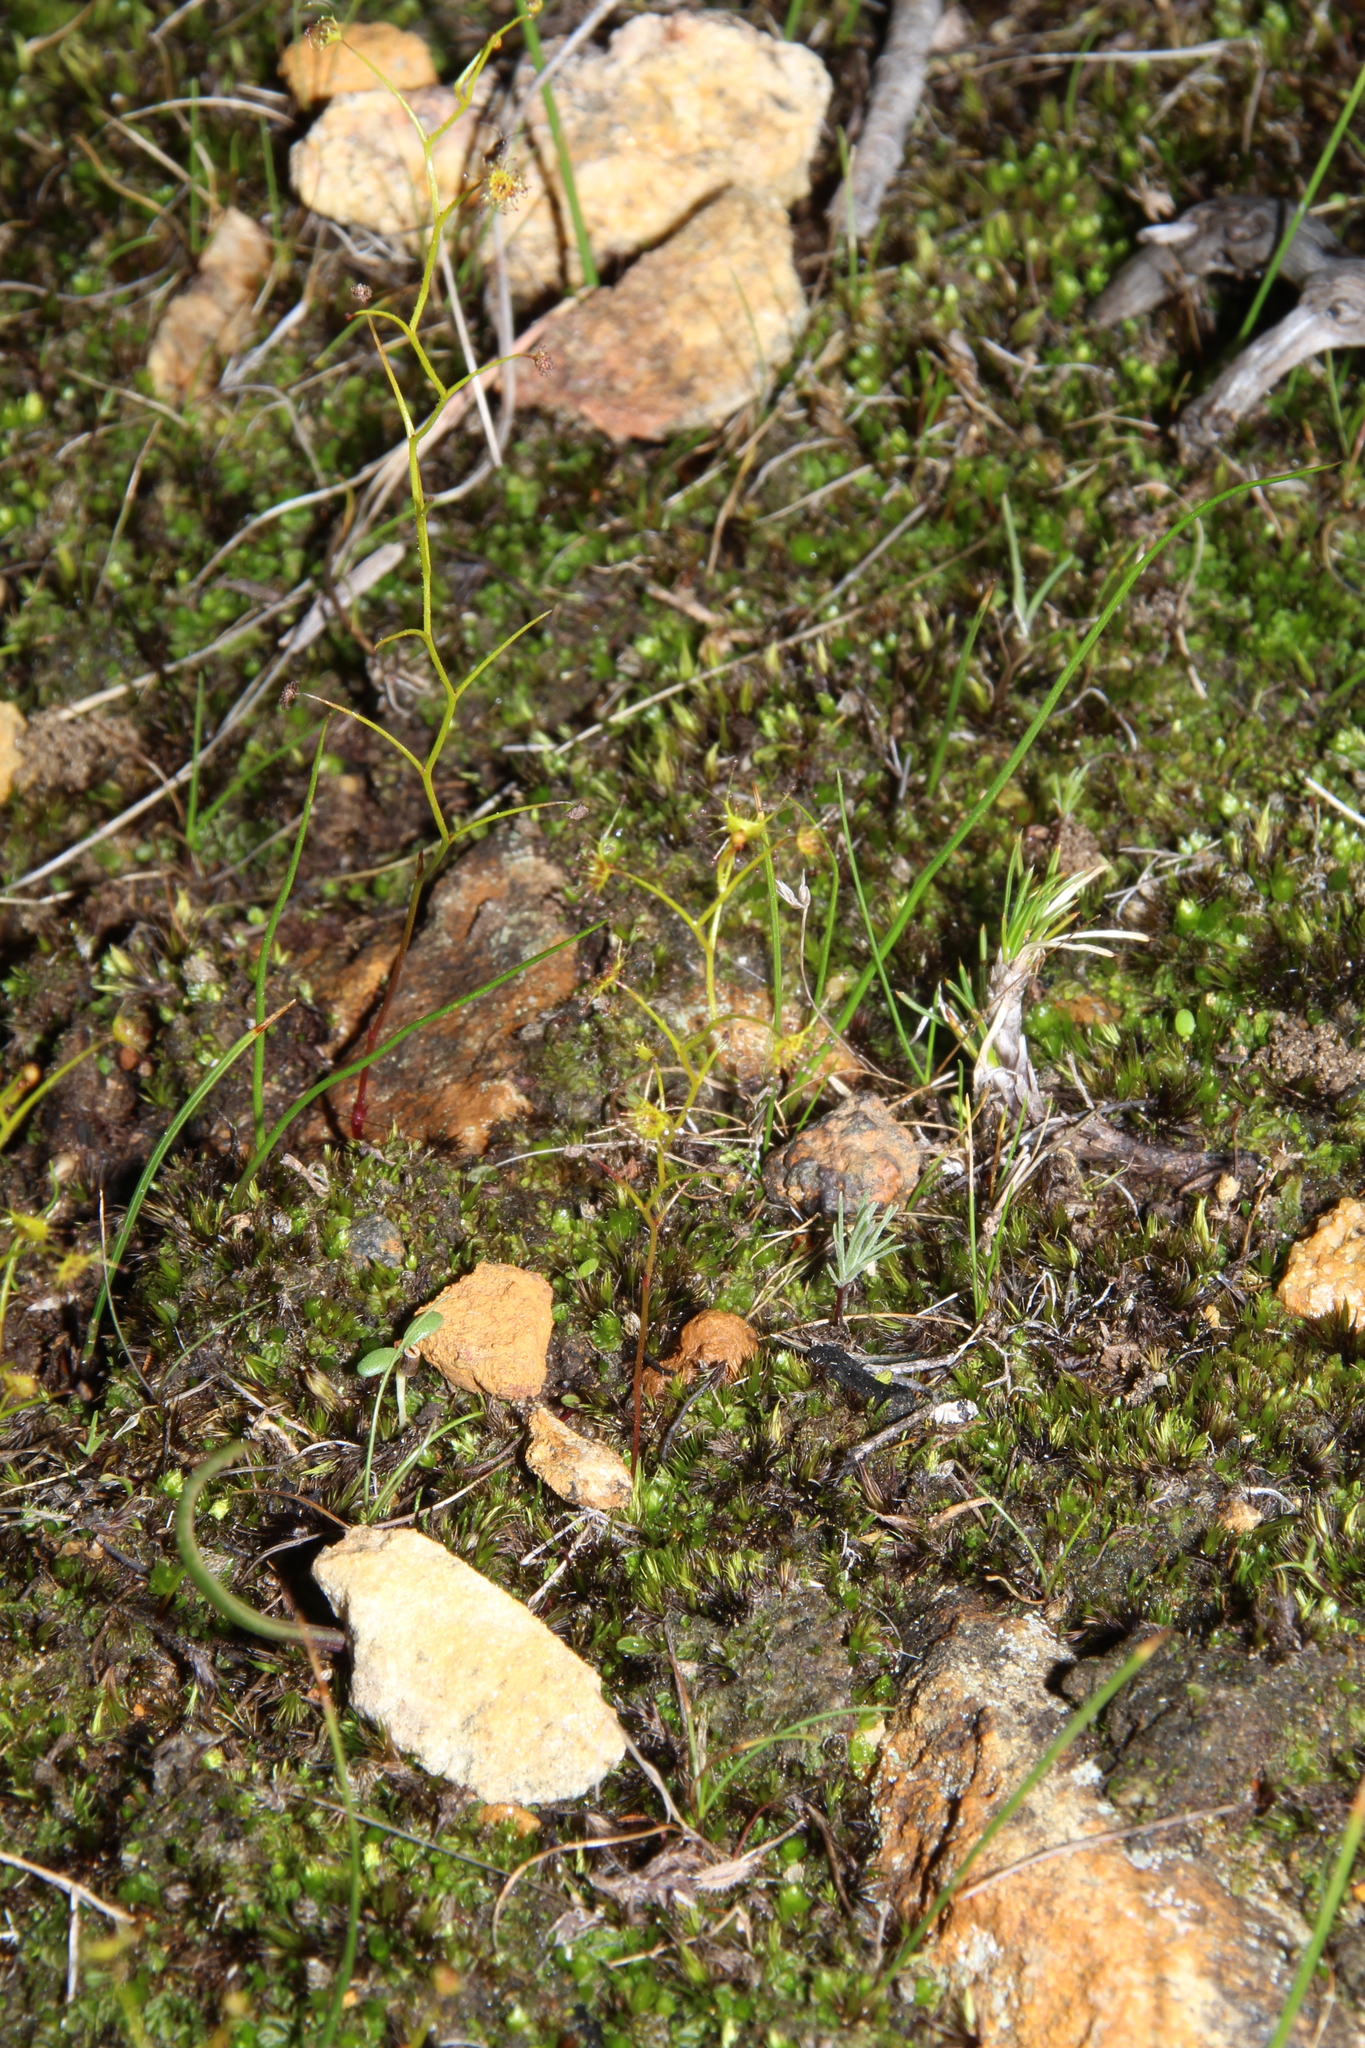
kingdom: Plantae
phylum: Tracheophyta
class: Magnoliopsida
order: Caryophyllales
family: Droseraceae
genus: Drosera
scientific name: Drosera modesta
